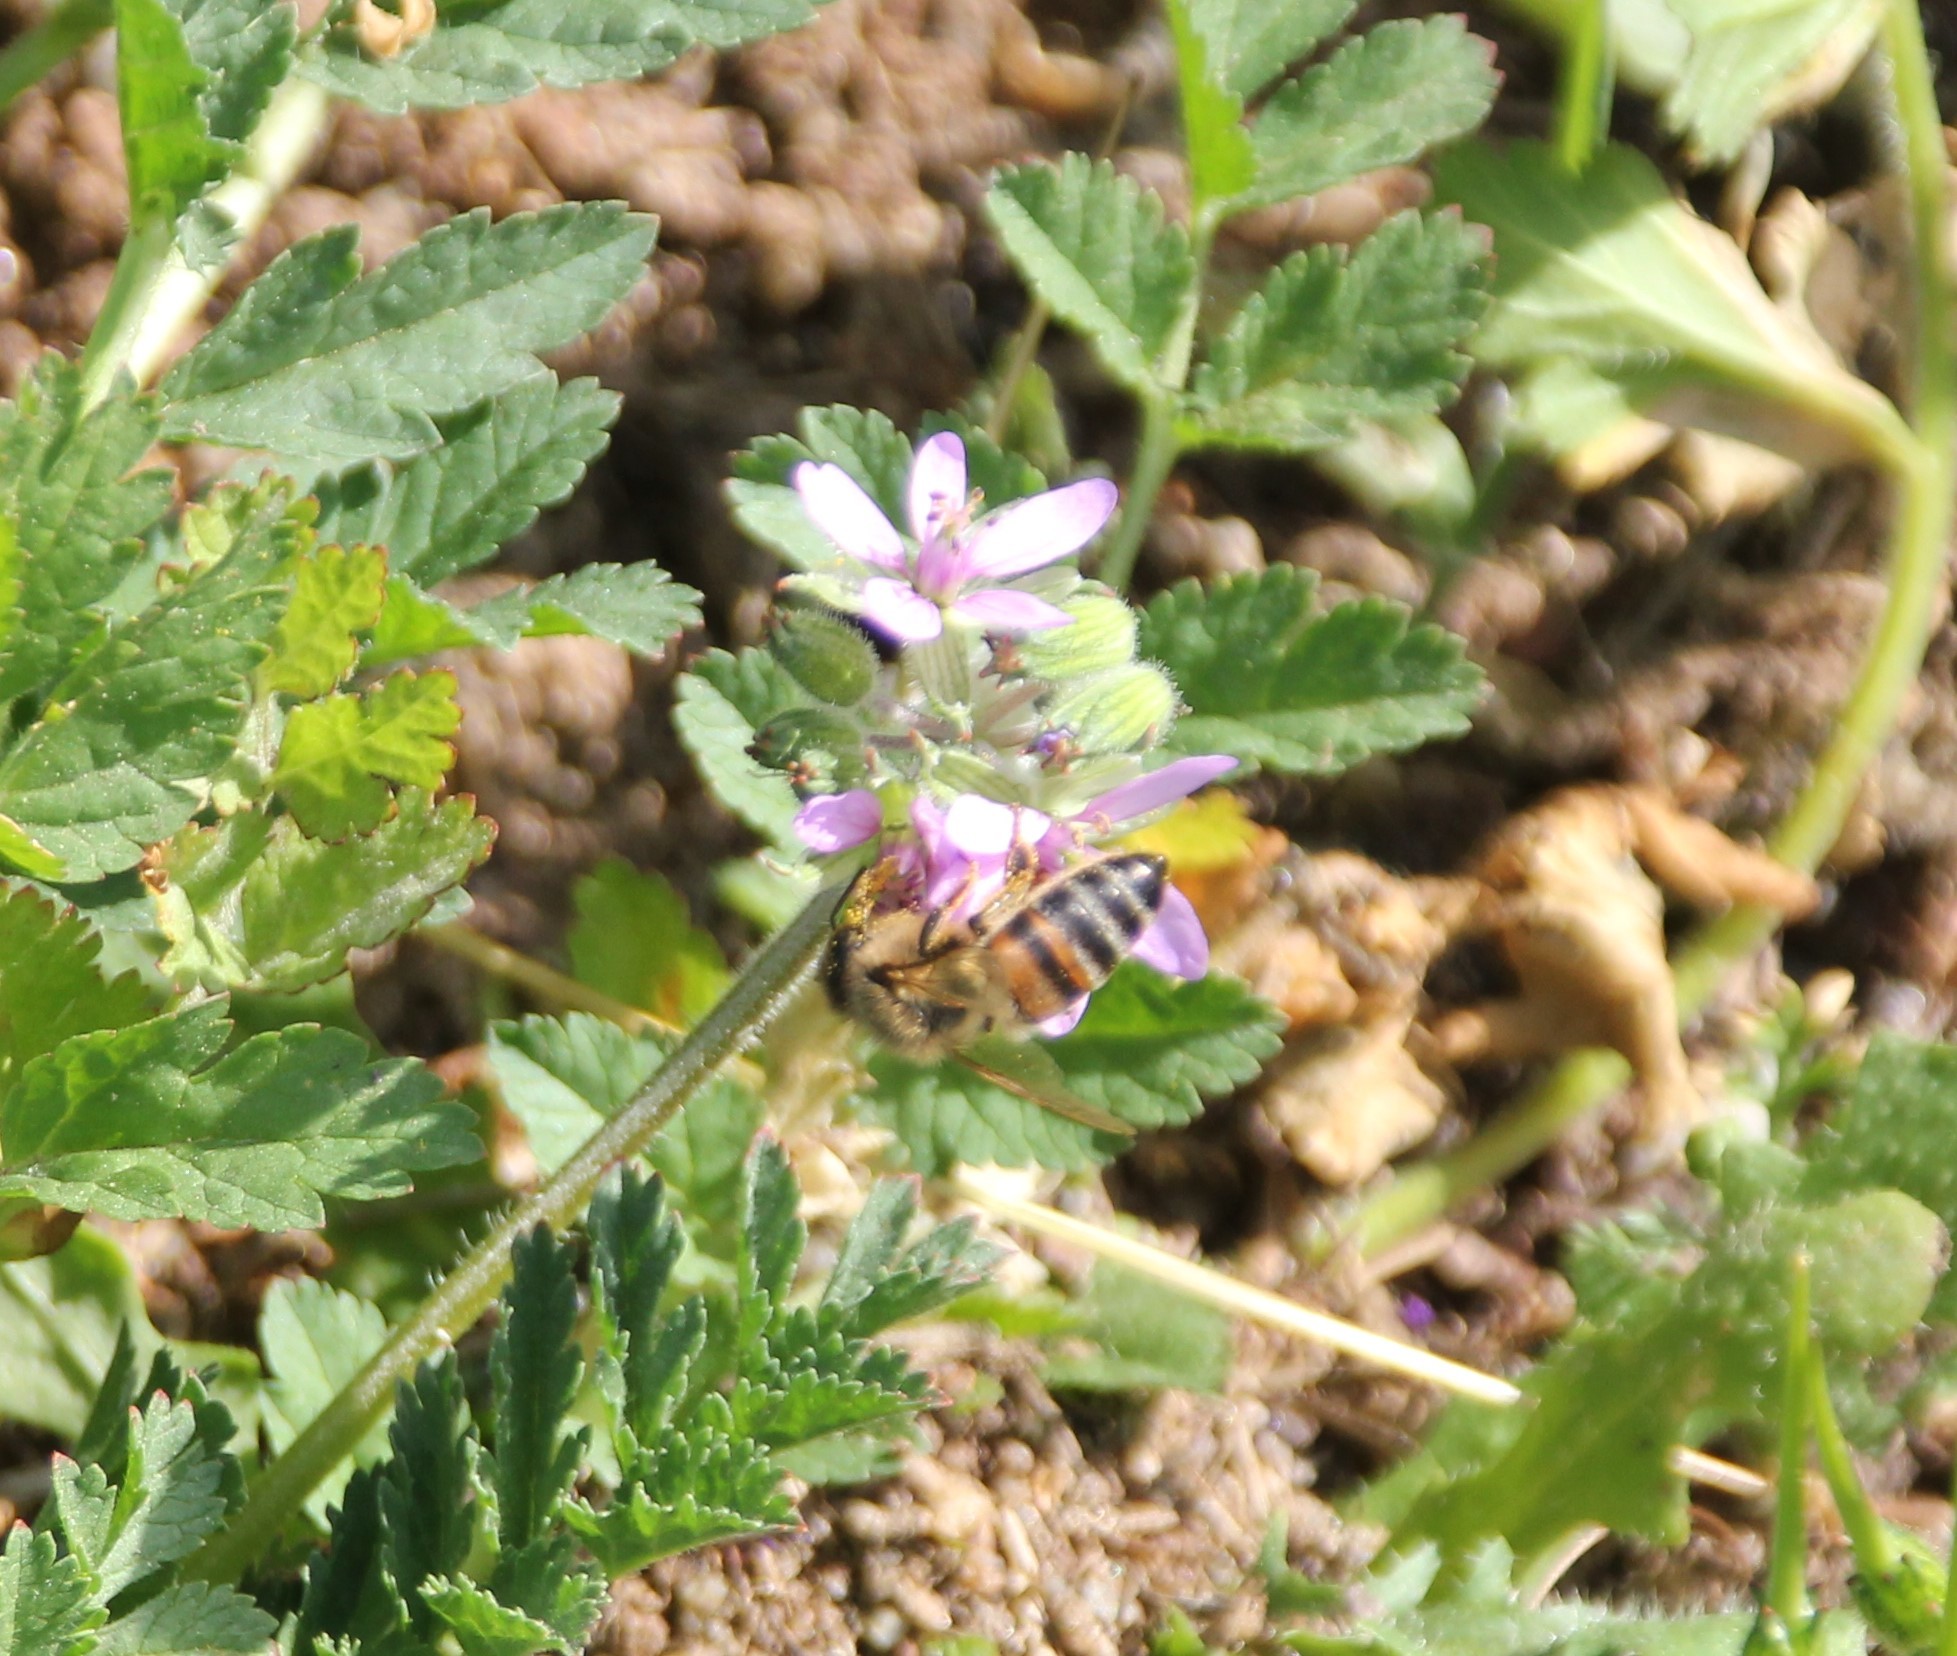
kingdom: Animalia
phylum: Arthropoda
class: Insecta
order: Hymenoptera
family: Apidae
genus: Apis
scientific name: Apis mellifera
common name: Honey bee
